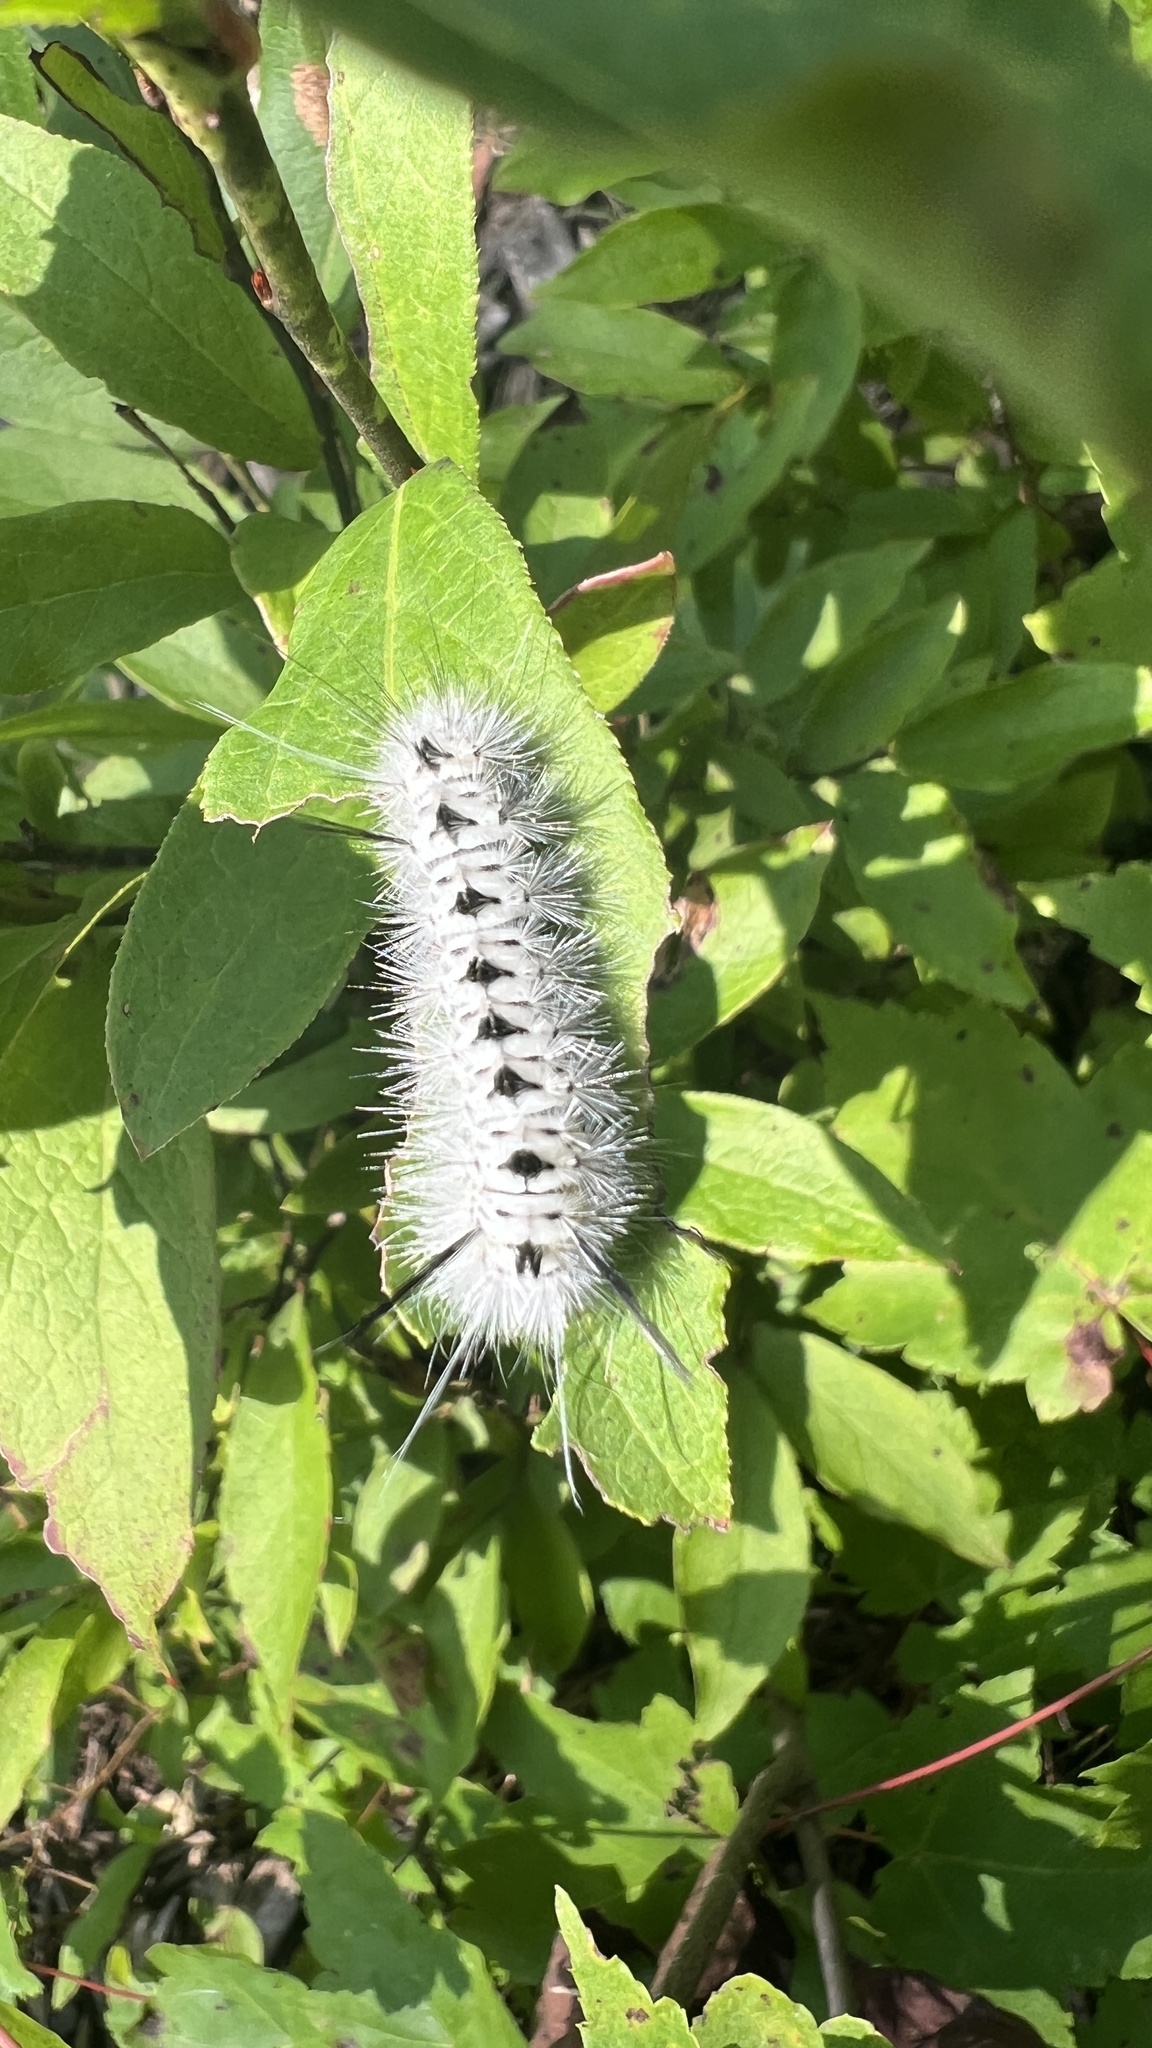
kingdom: Animalia
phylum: Arthropoda
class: Insecta
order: Lepidoptera
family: Erebidae
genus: Lophocampa
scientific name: Lophocampa caryae
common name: Hickory tussock moth
